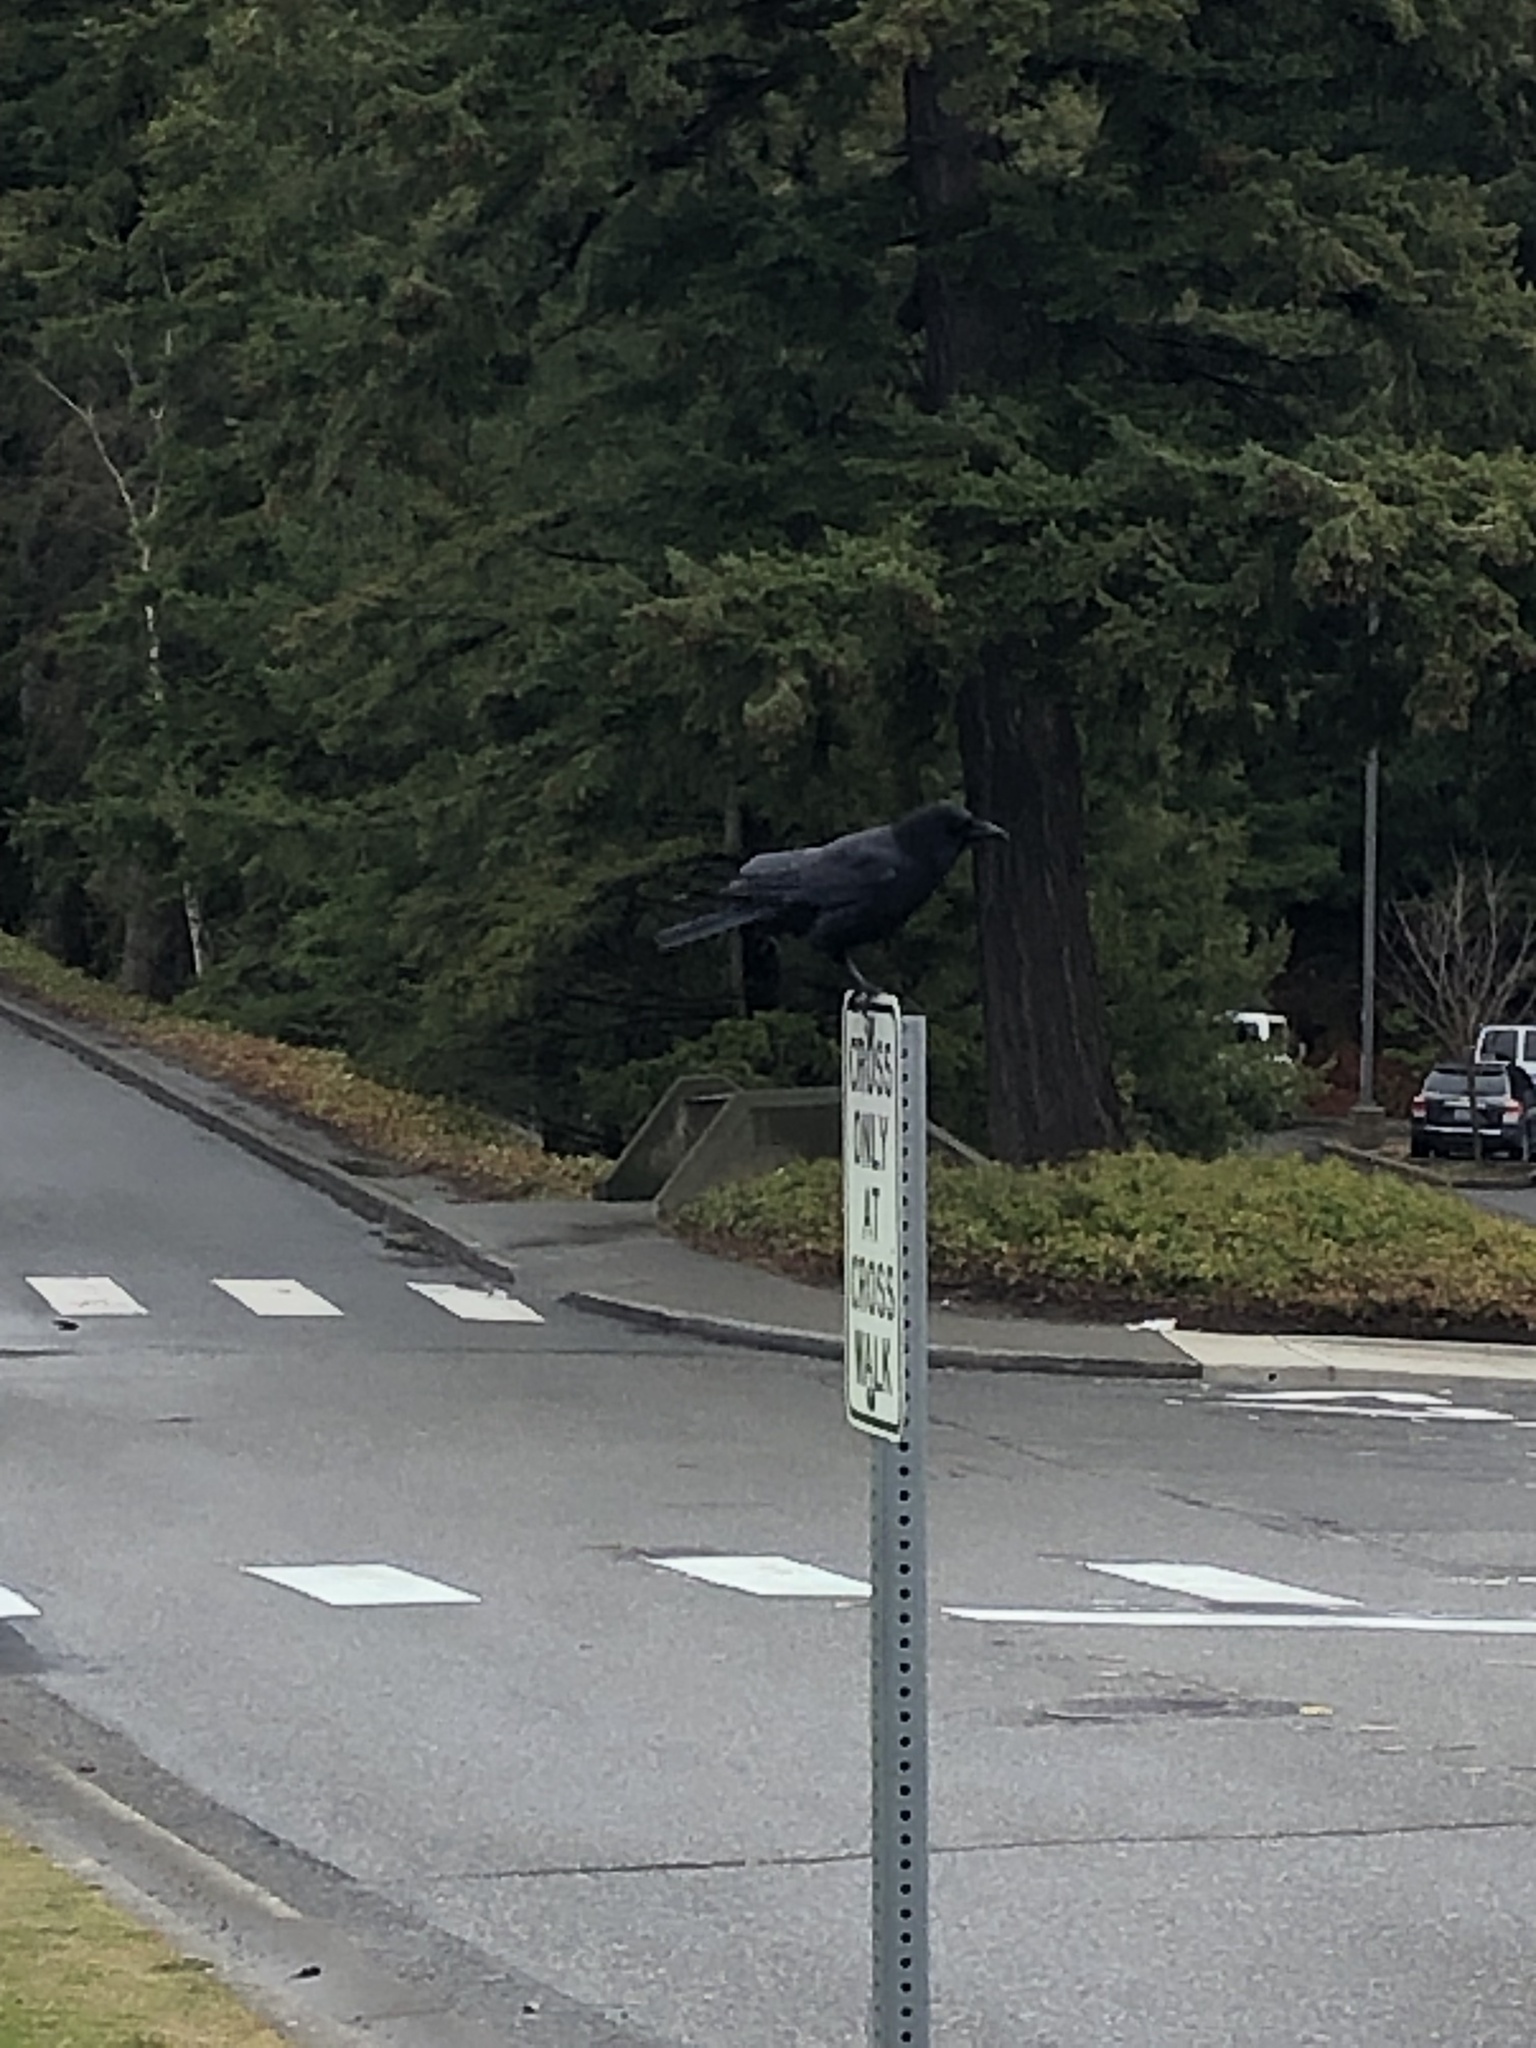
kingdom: Animalia
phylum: Chordata
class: Aves
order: Passeriformes
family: Corvidae
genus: Corvus
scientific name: Corvus brachyrhynchos
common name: American crow
